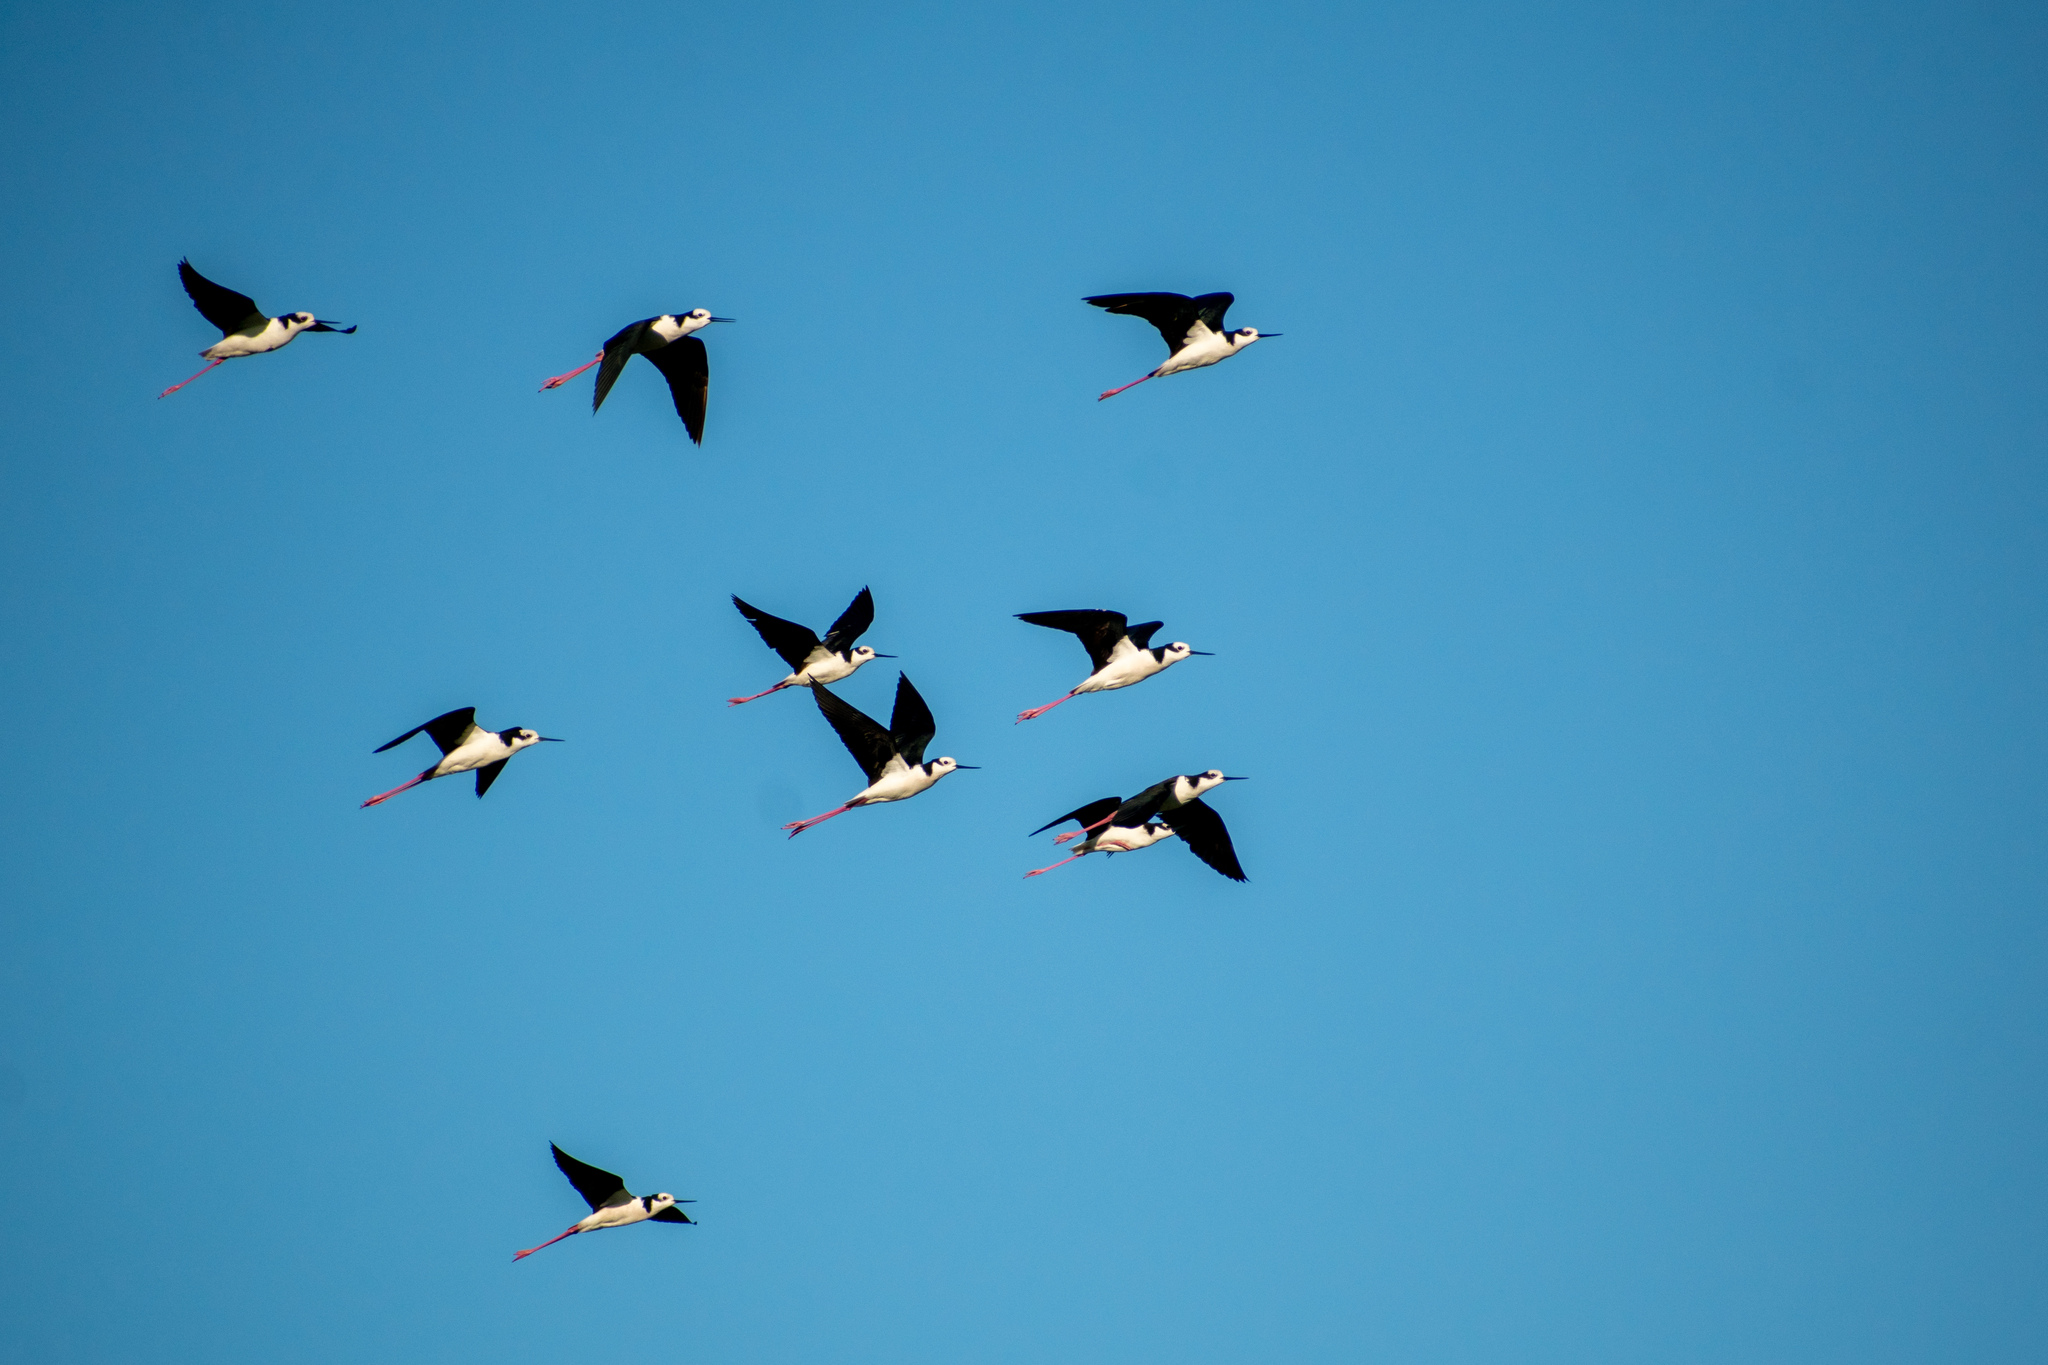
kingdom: Animalia
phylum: Chordata
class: Aves
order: Charadriiformes
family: Recurvirostridae
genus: Himantopus
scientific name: Himantopus mexicanus
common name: Black-necked stilt
